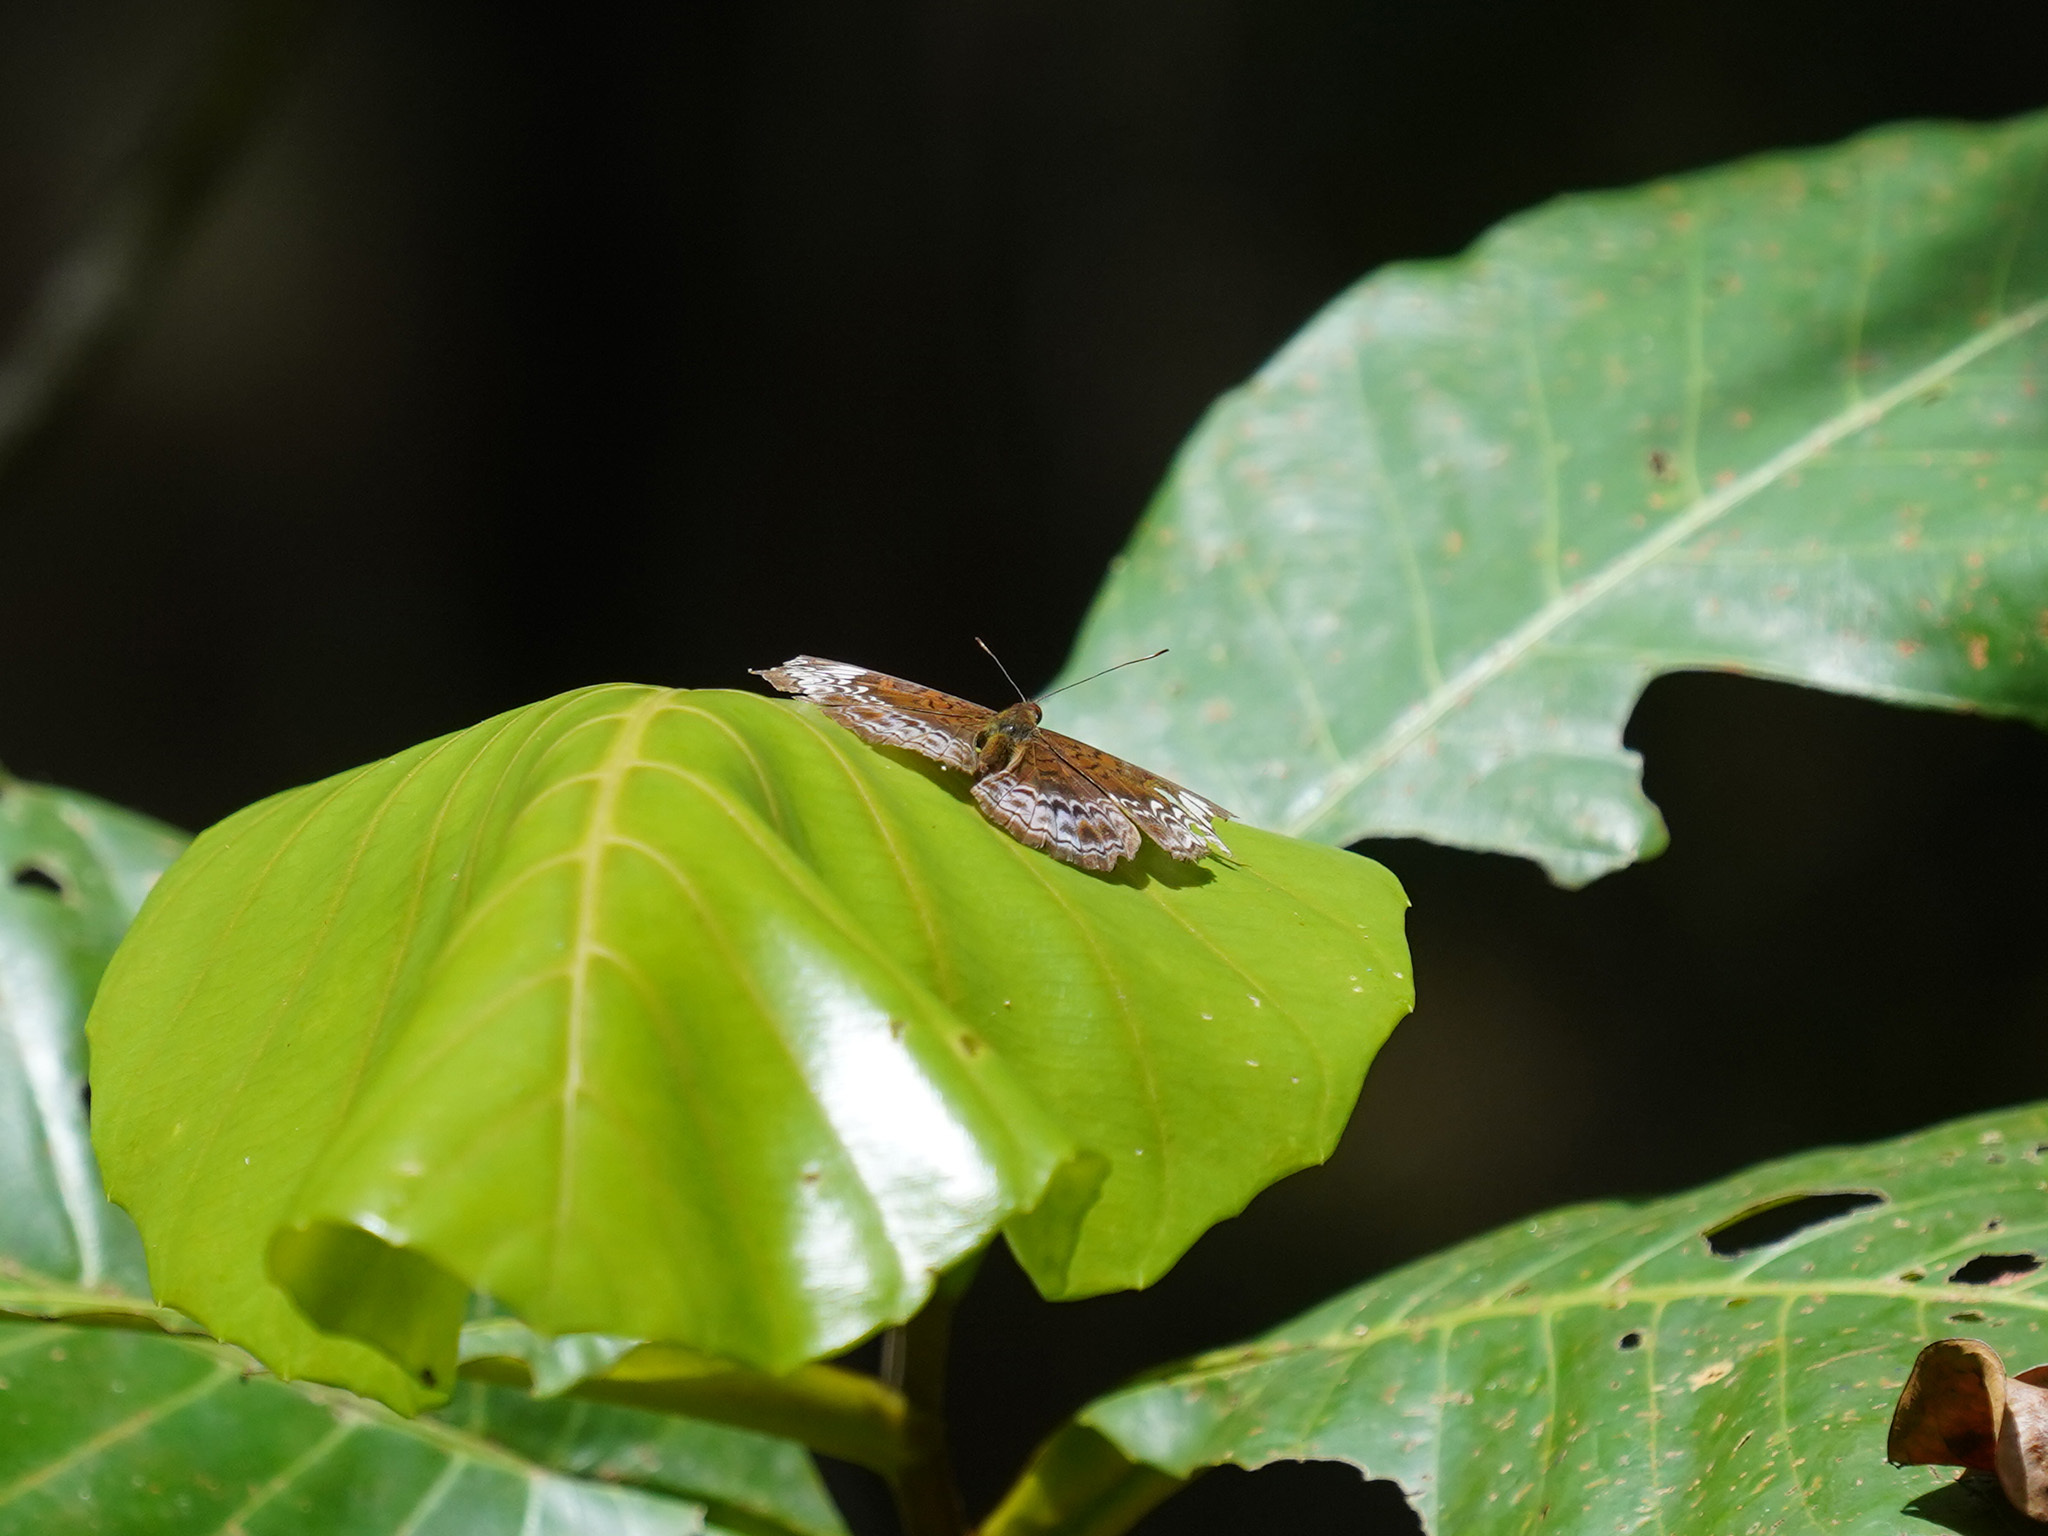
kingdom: Animalia
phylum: Arthropoda
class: Insecta
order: Lepidoptera
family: Nymphalidae
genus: Lebadea
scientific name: Lebadea martha
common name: Knight
